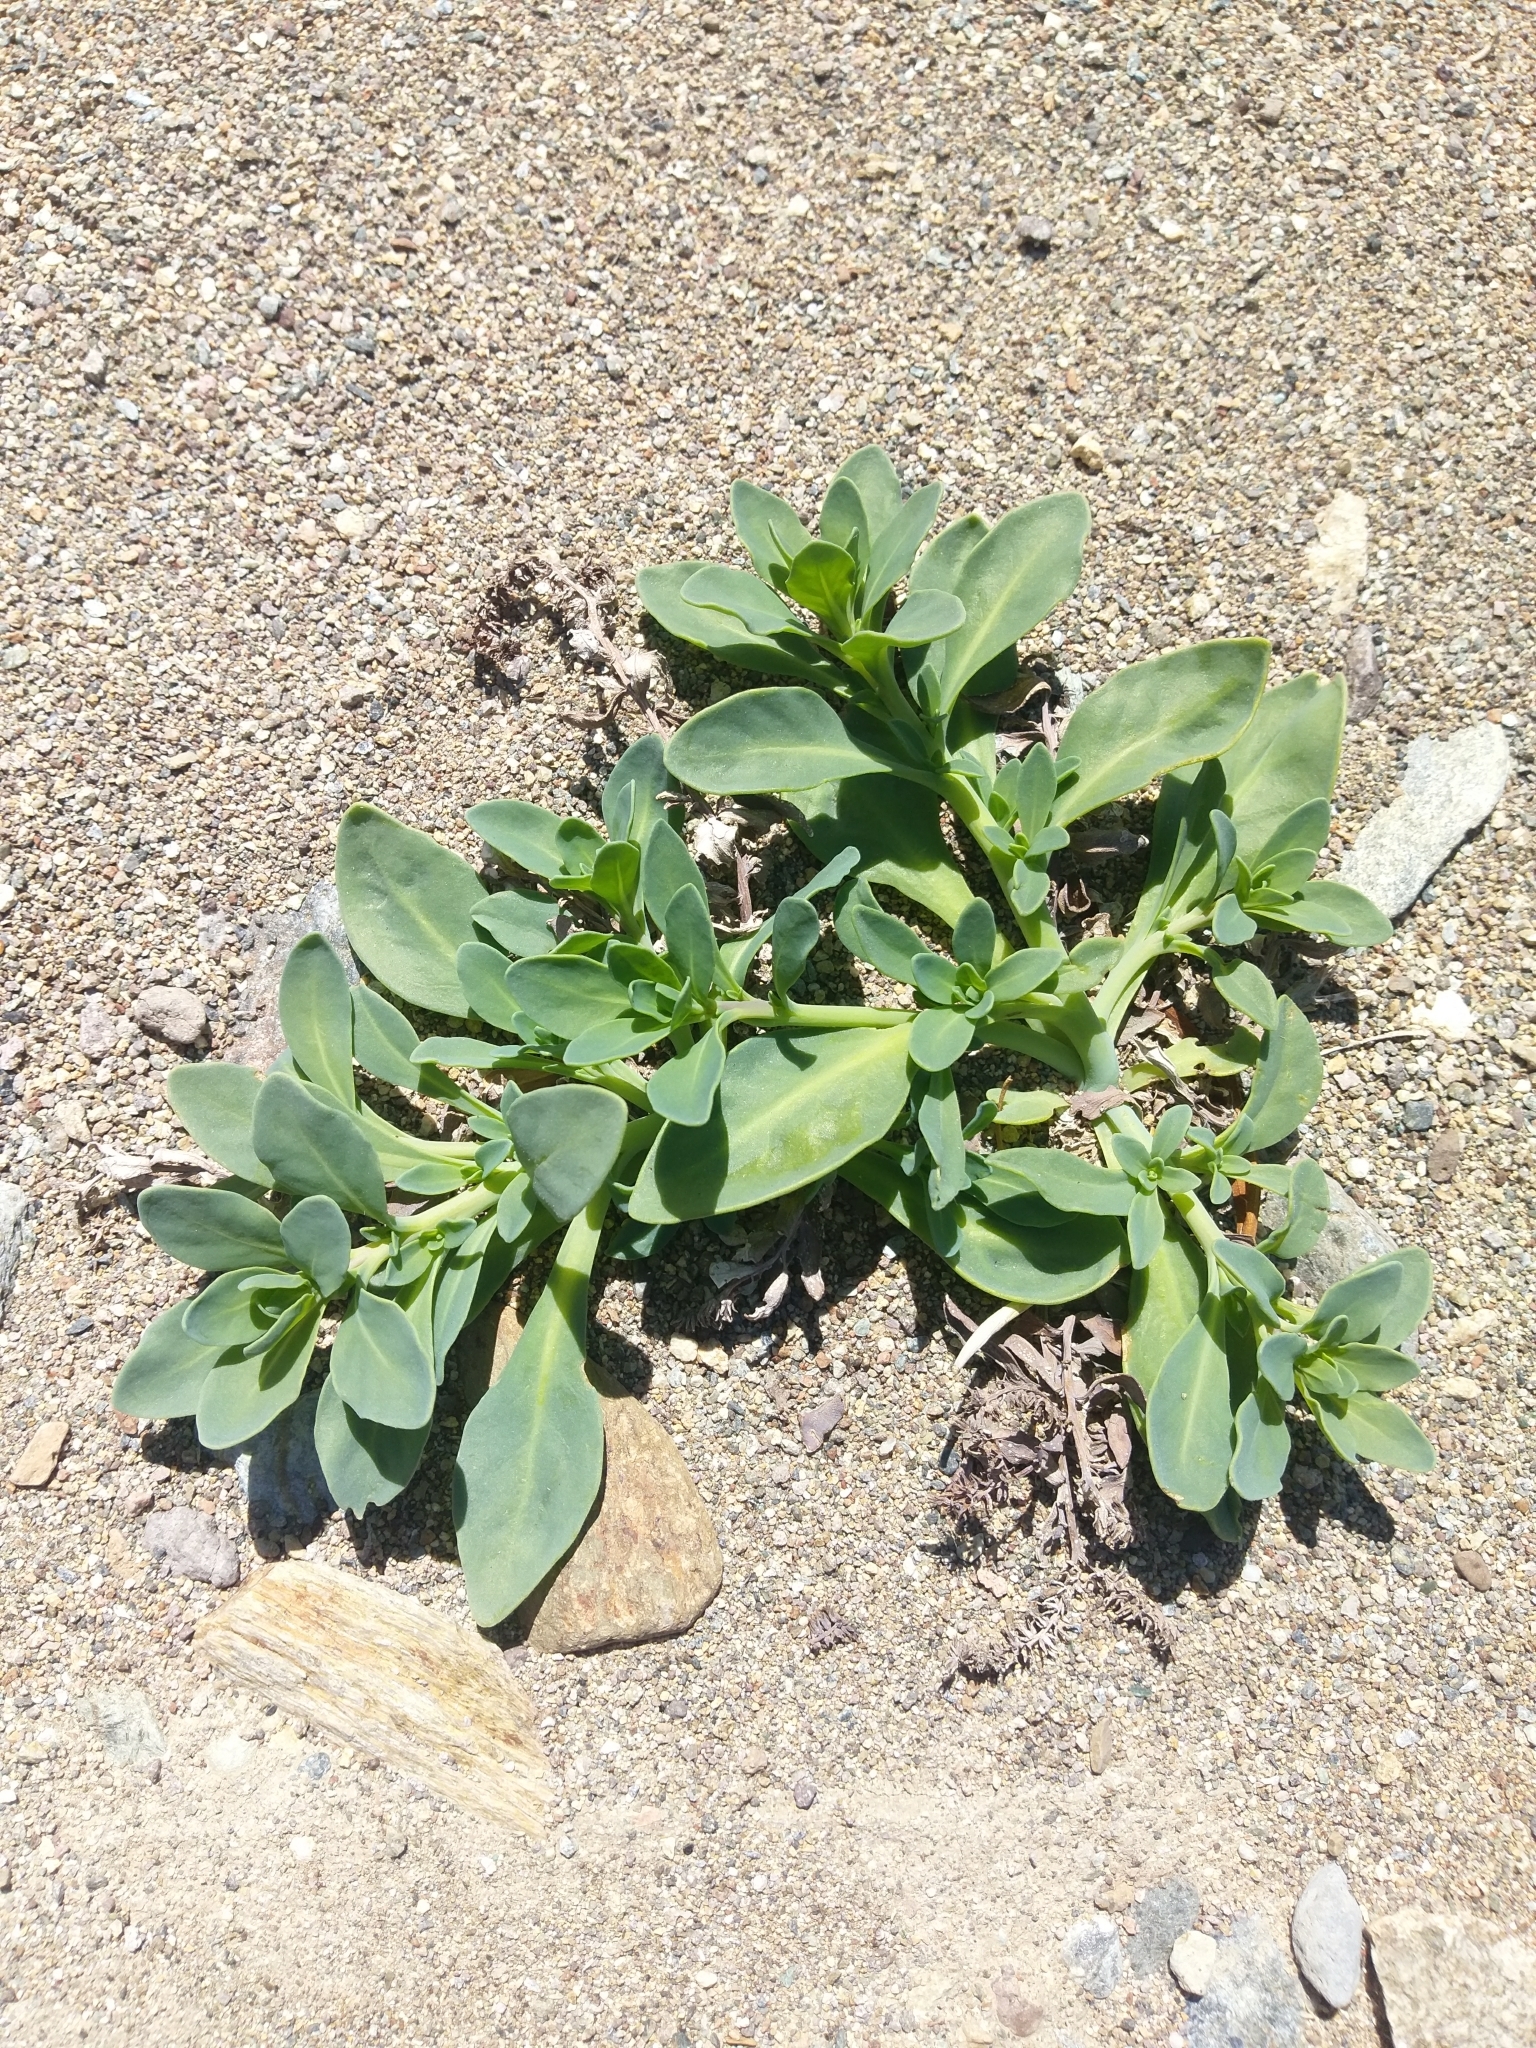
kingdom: Plantae
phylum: Tracheophyta
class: Magnoliopsida
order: Boraginales
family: Heliotropiaceae
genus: Heliotropium
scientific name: Heliotropium curassavicum
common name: Seaside heliotrope
